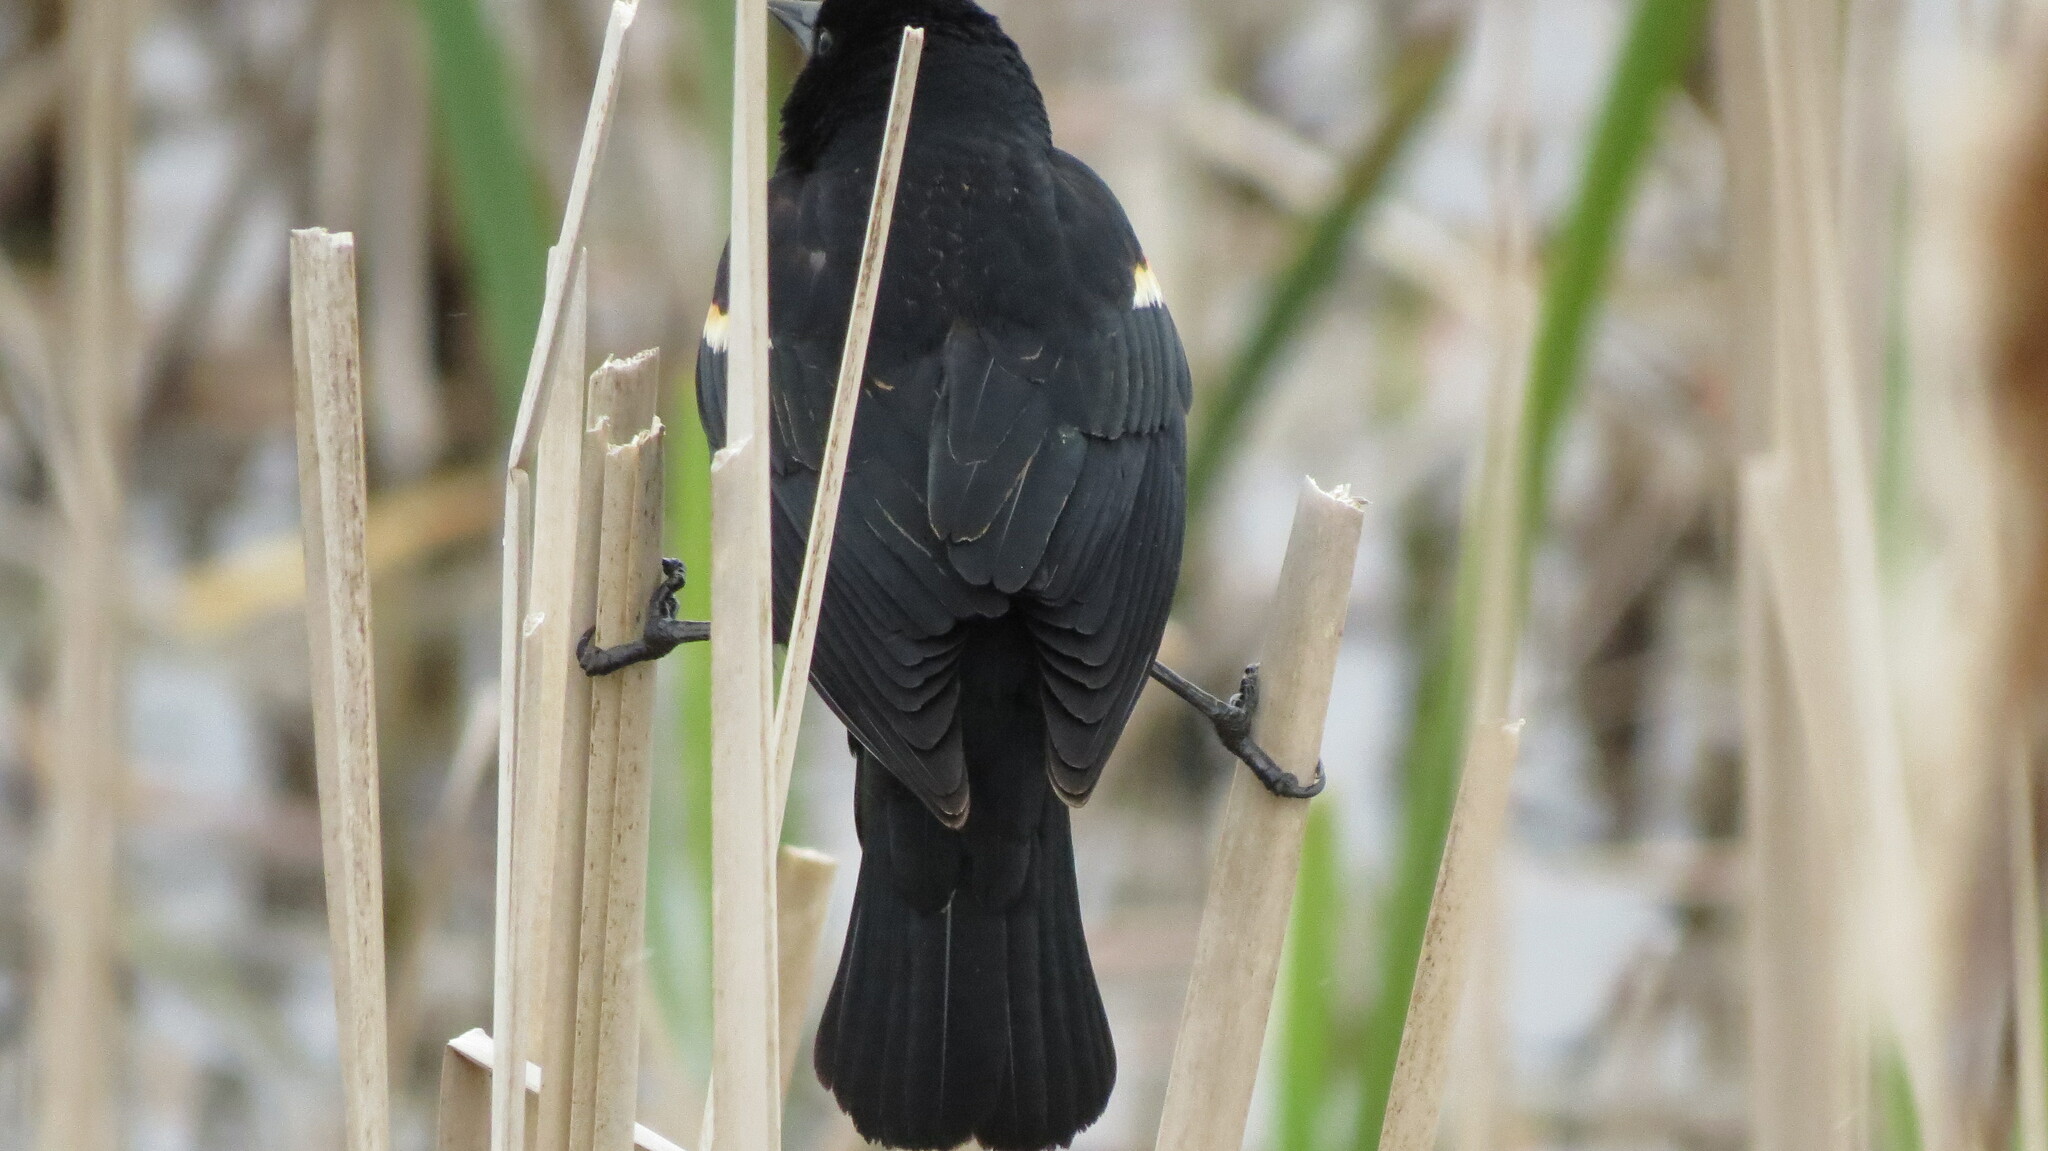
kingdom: Animalia
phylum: Chordata
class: Aves
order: Passeriformes
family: Icteridae
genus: Agelaius
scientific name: Agelaius phoeniceus
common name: Red-winged blackbird
